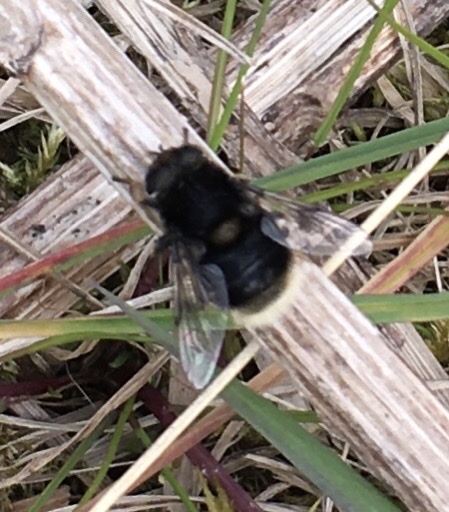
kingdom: Animalia
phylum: Arthropoda
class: Insecta
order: Diptera
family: Syrphidae
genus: Eristalis
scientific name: Eristalis intricaria
